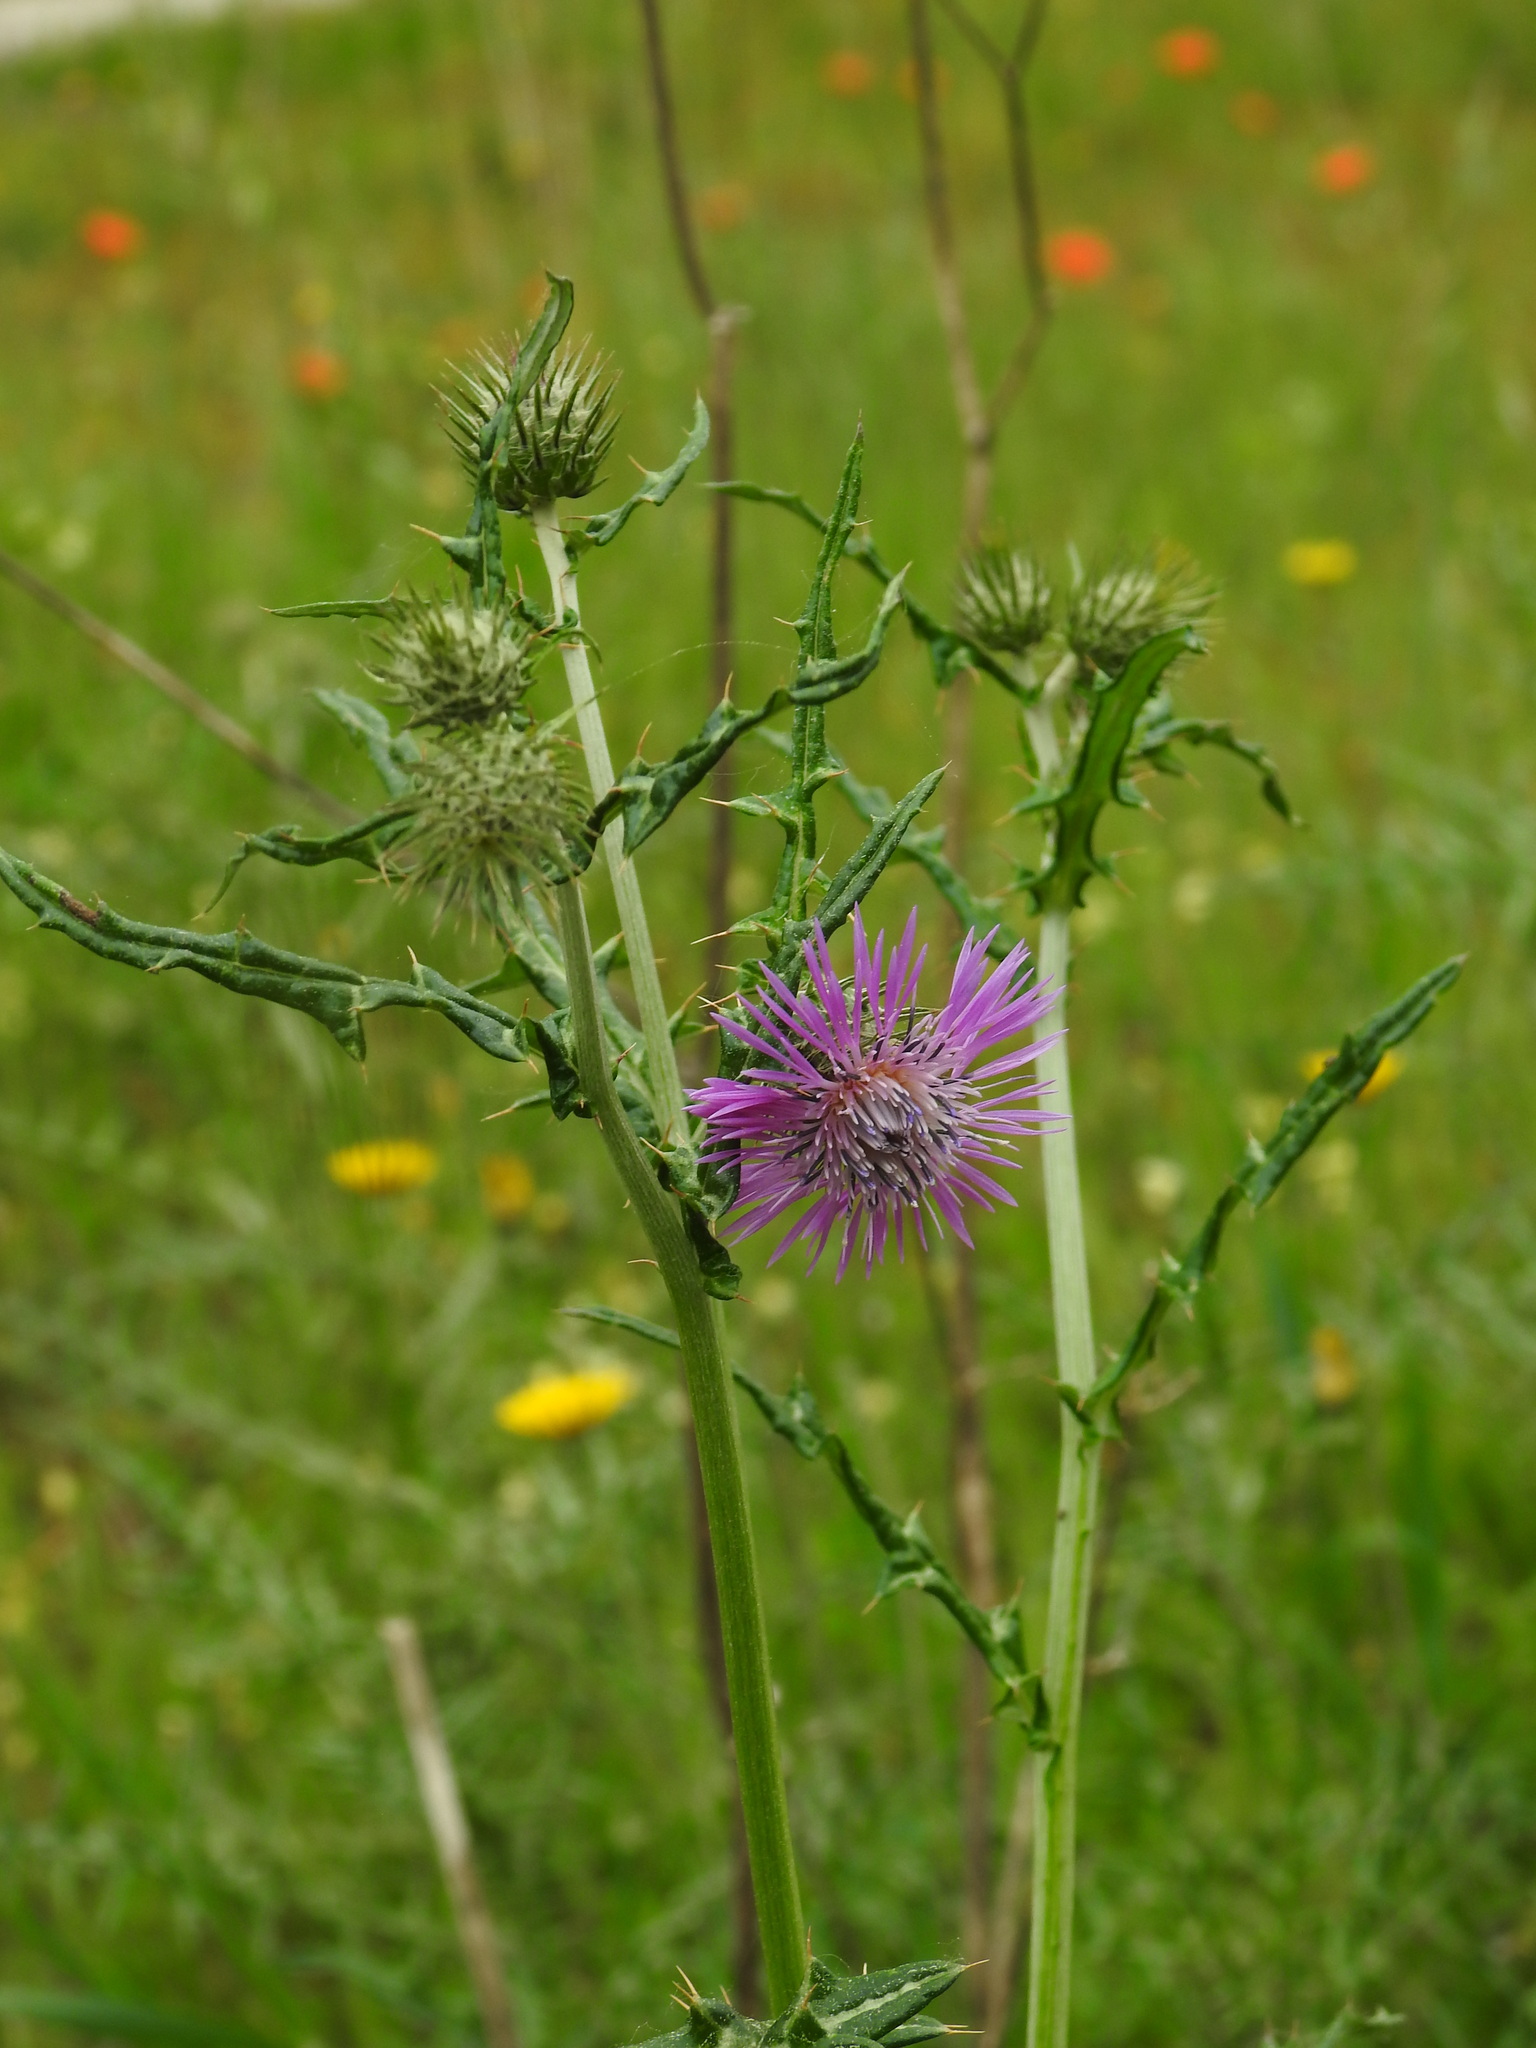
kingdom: Plantae
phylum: Tracheophyta
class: Magnoliopsida
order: Asterales
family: Asteraceae
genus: Galactites
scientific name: Galactites tomentosa
